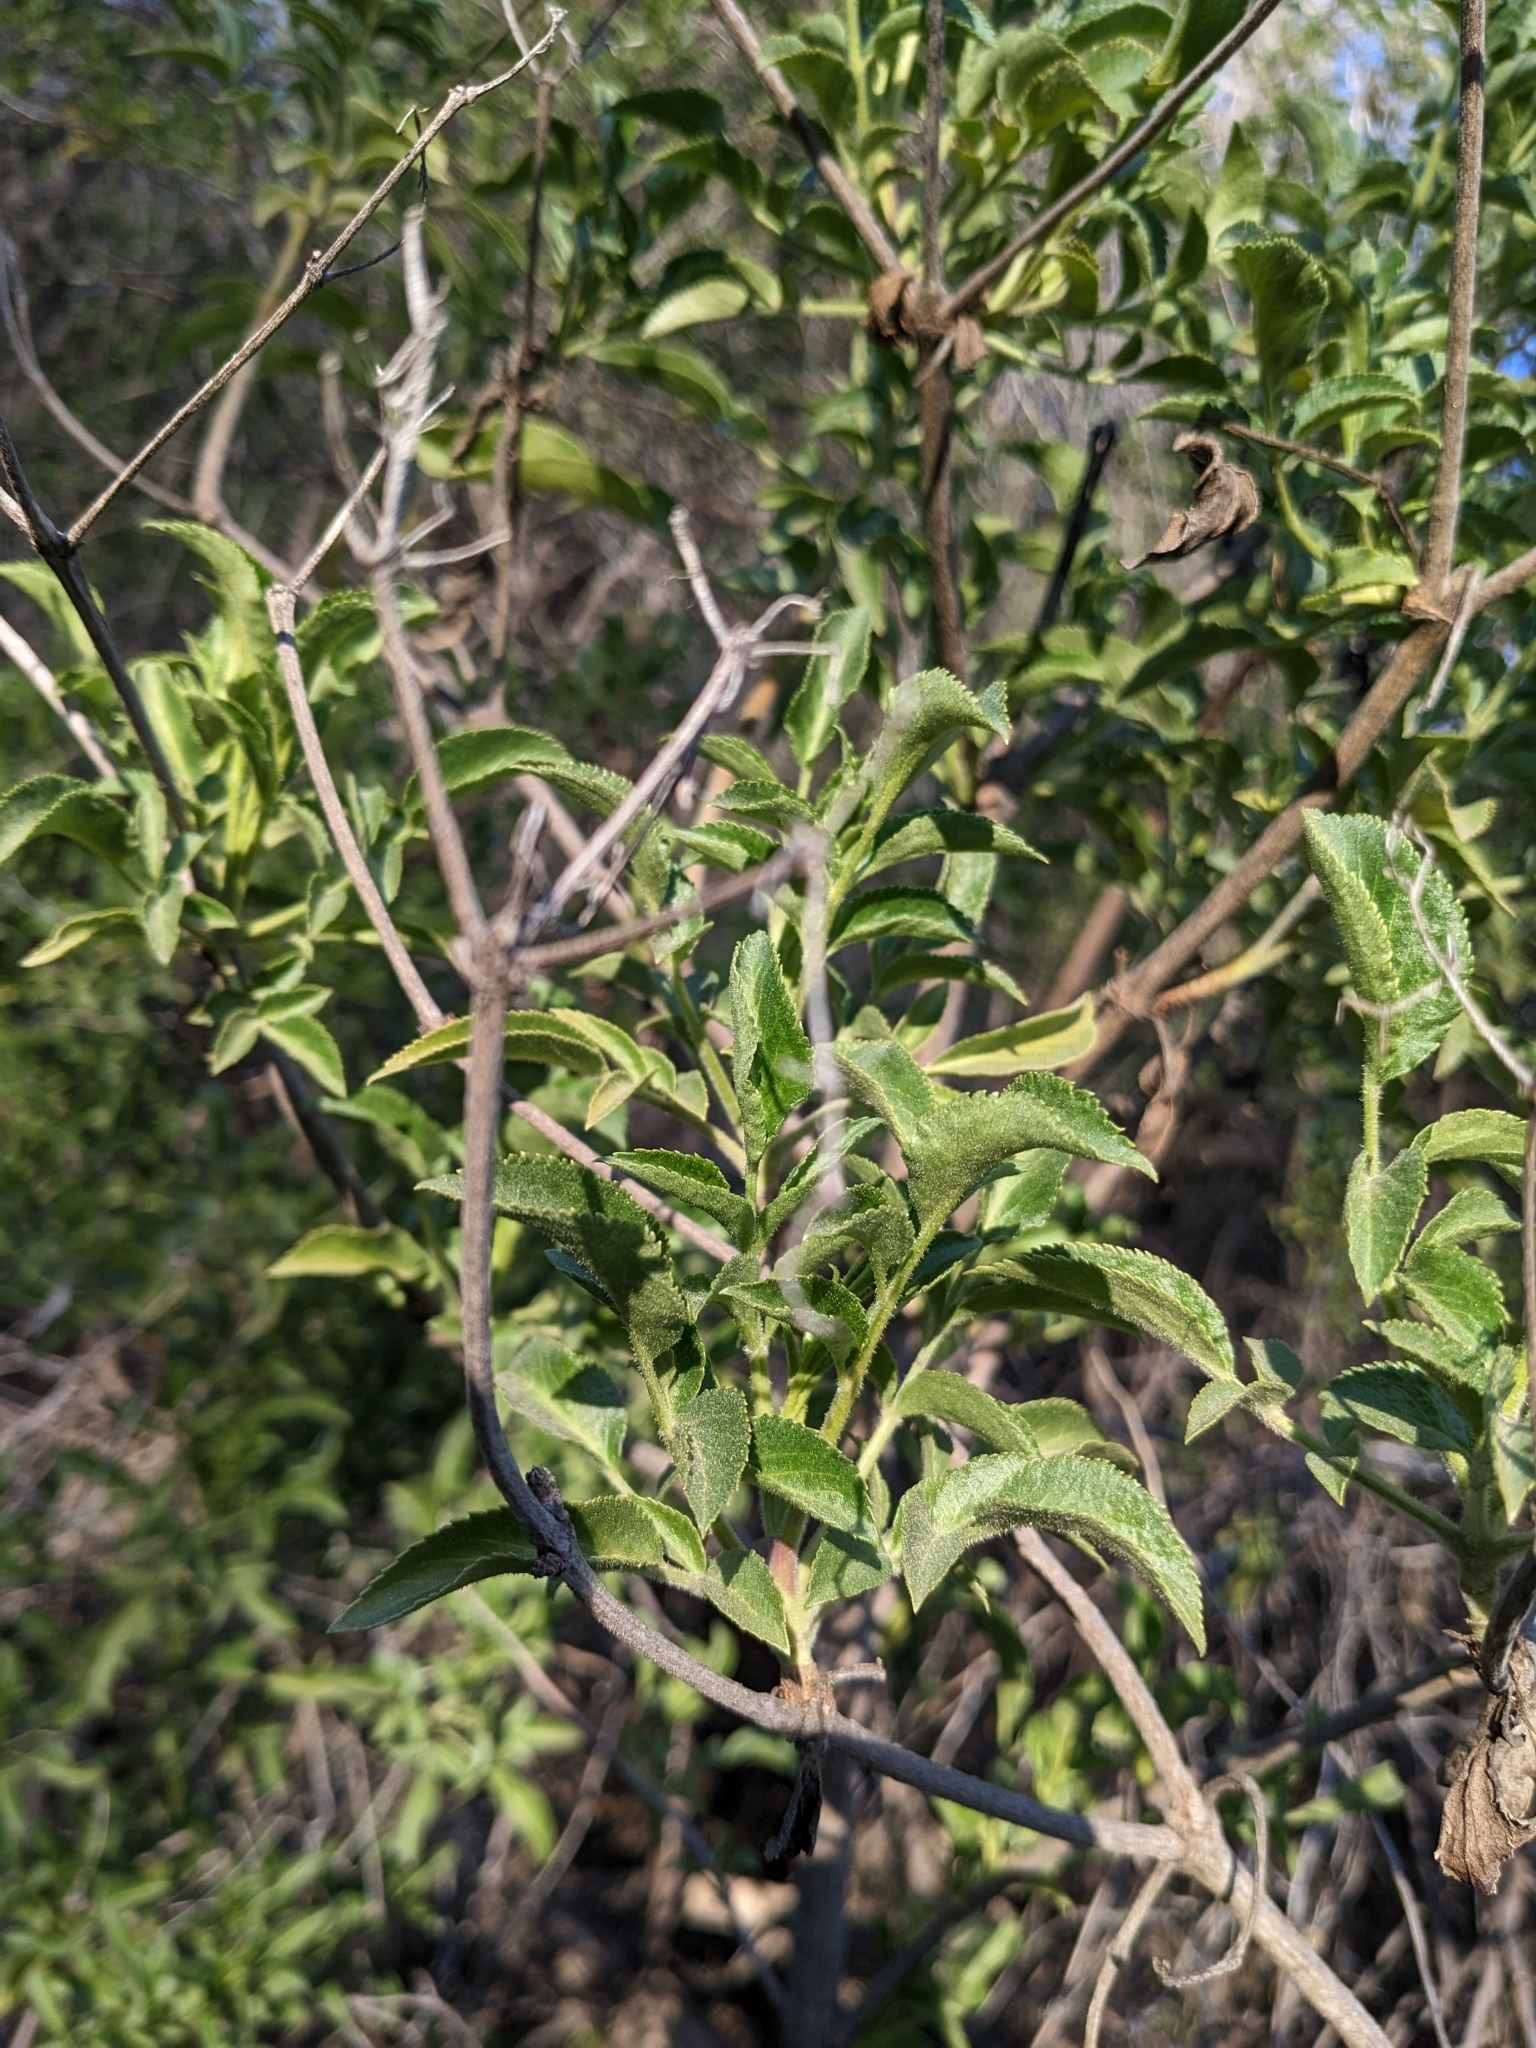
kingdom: Plantae
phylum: Tracheophyta
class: Magnoliopsida
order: Dipsacales
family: Viburnaceae
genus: Sambucus
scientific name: Sambucus cerulea
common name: Blue elder
